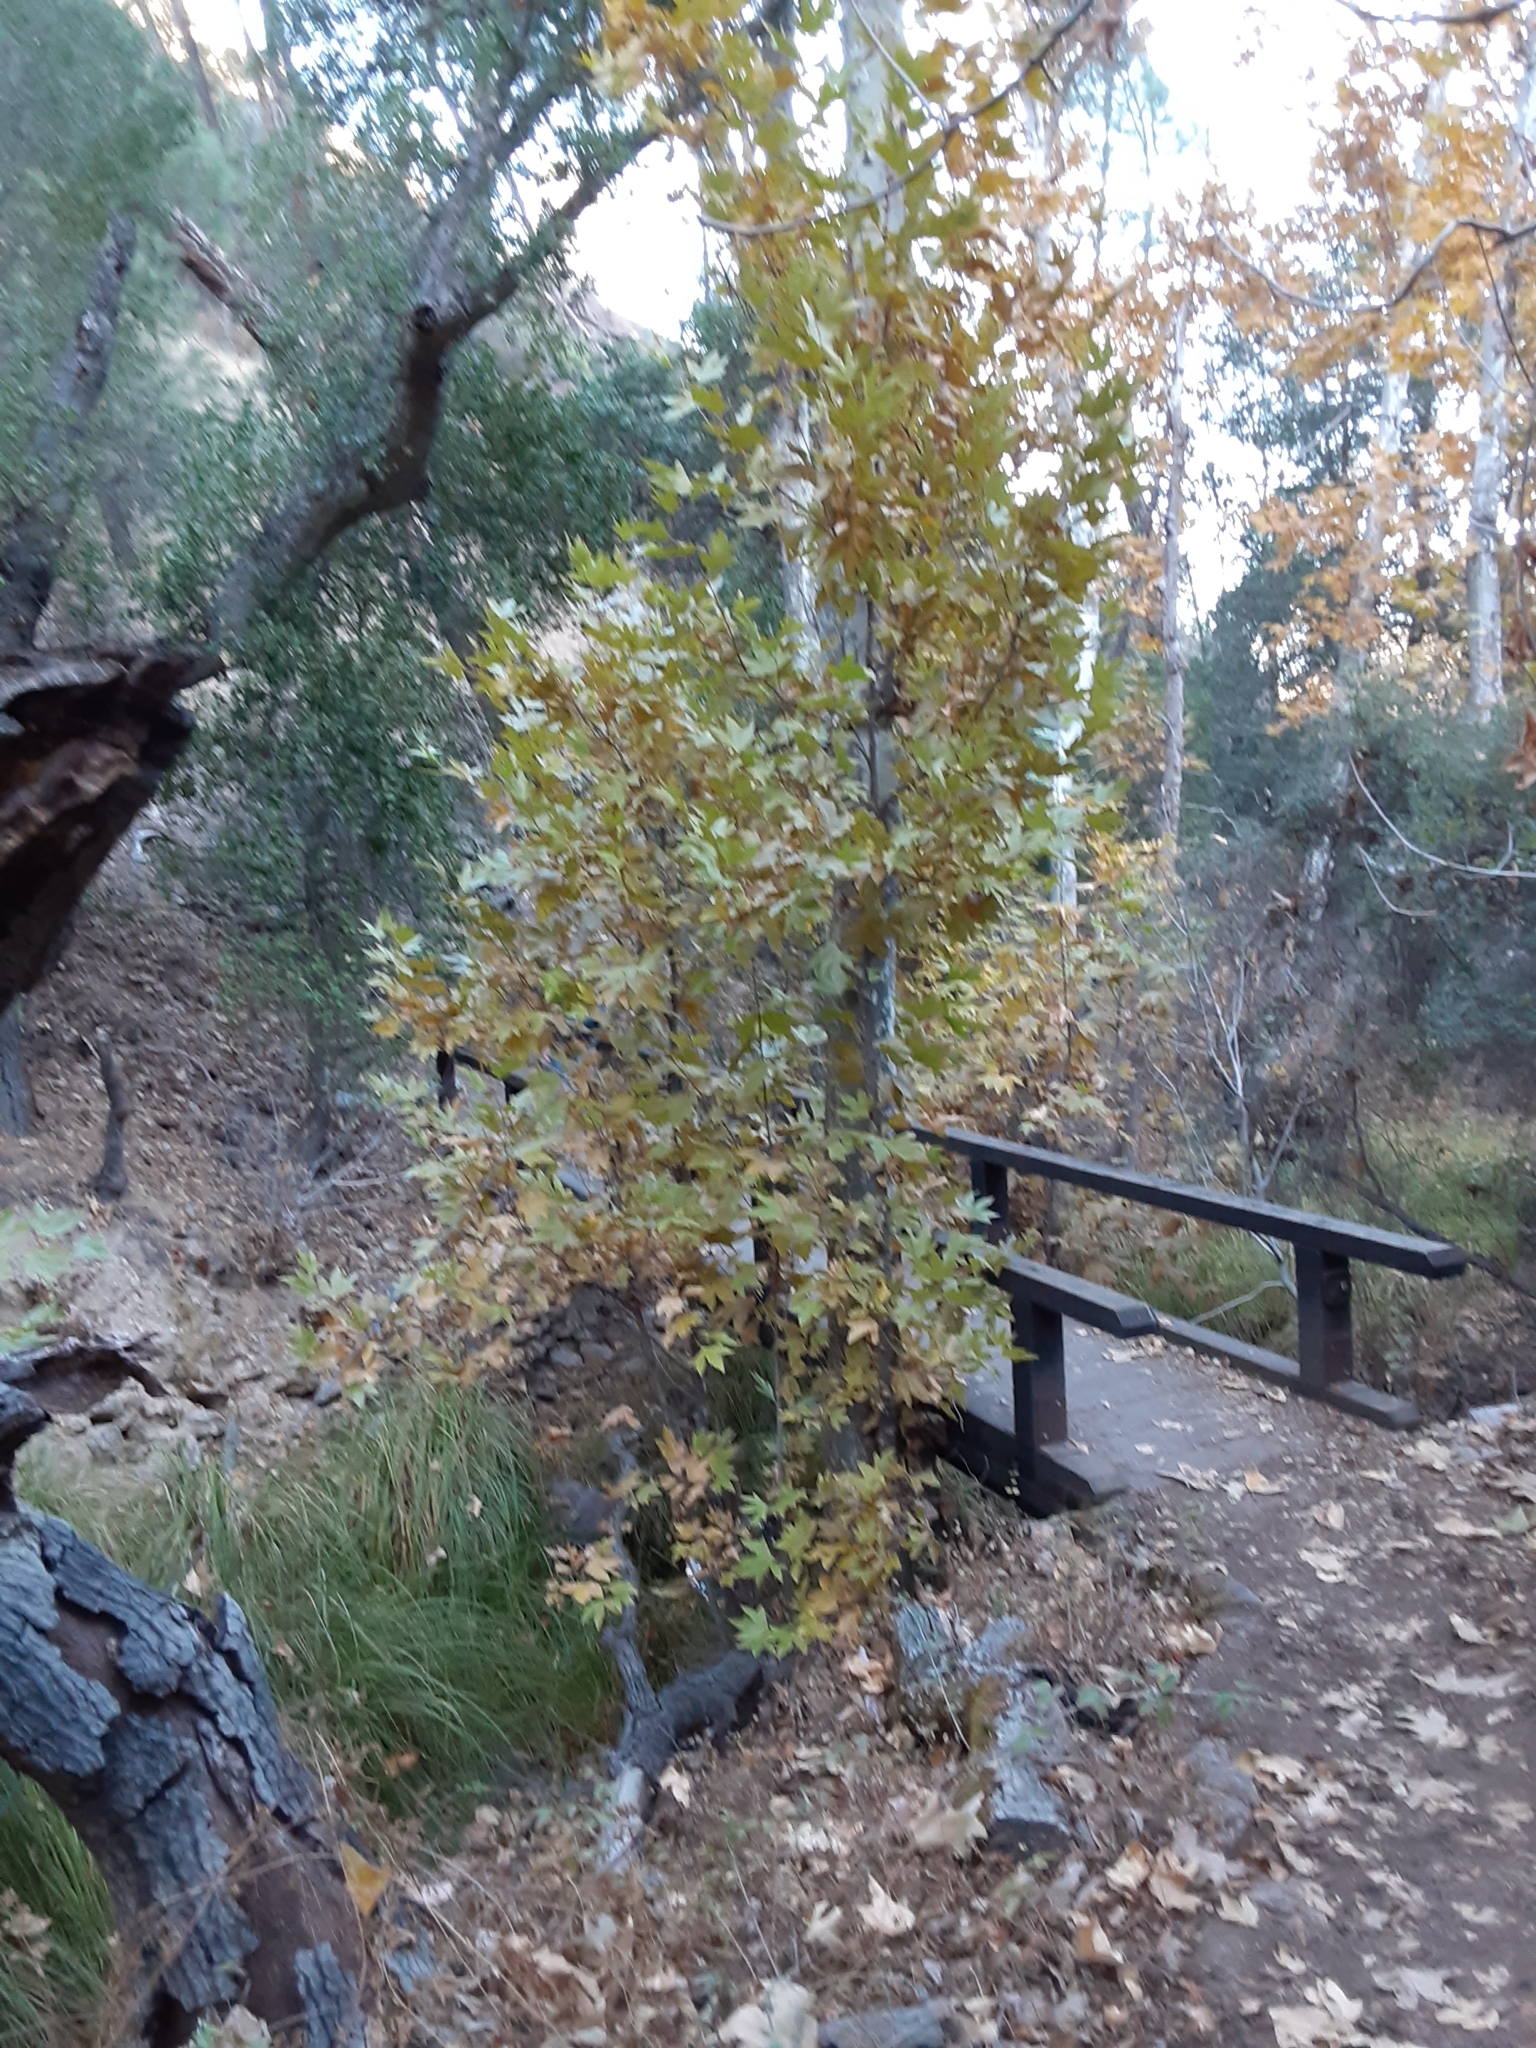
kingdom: Plantae
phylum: Tracheophyta
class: Magnoliopsida
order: Proteales
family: Platanaceae
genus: Platanus
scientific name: Platanus racemosa
